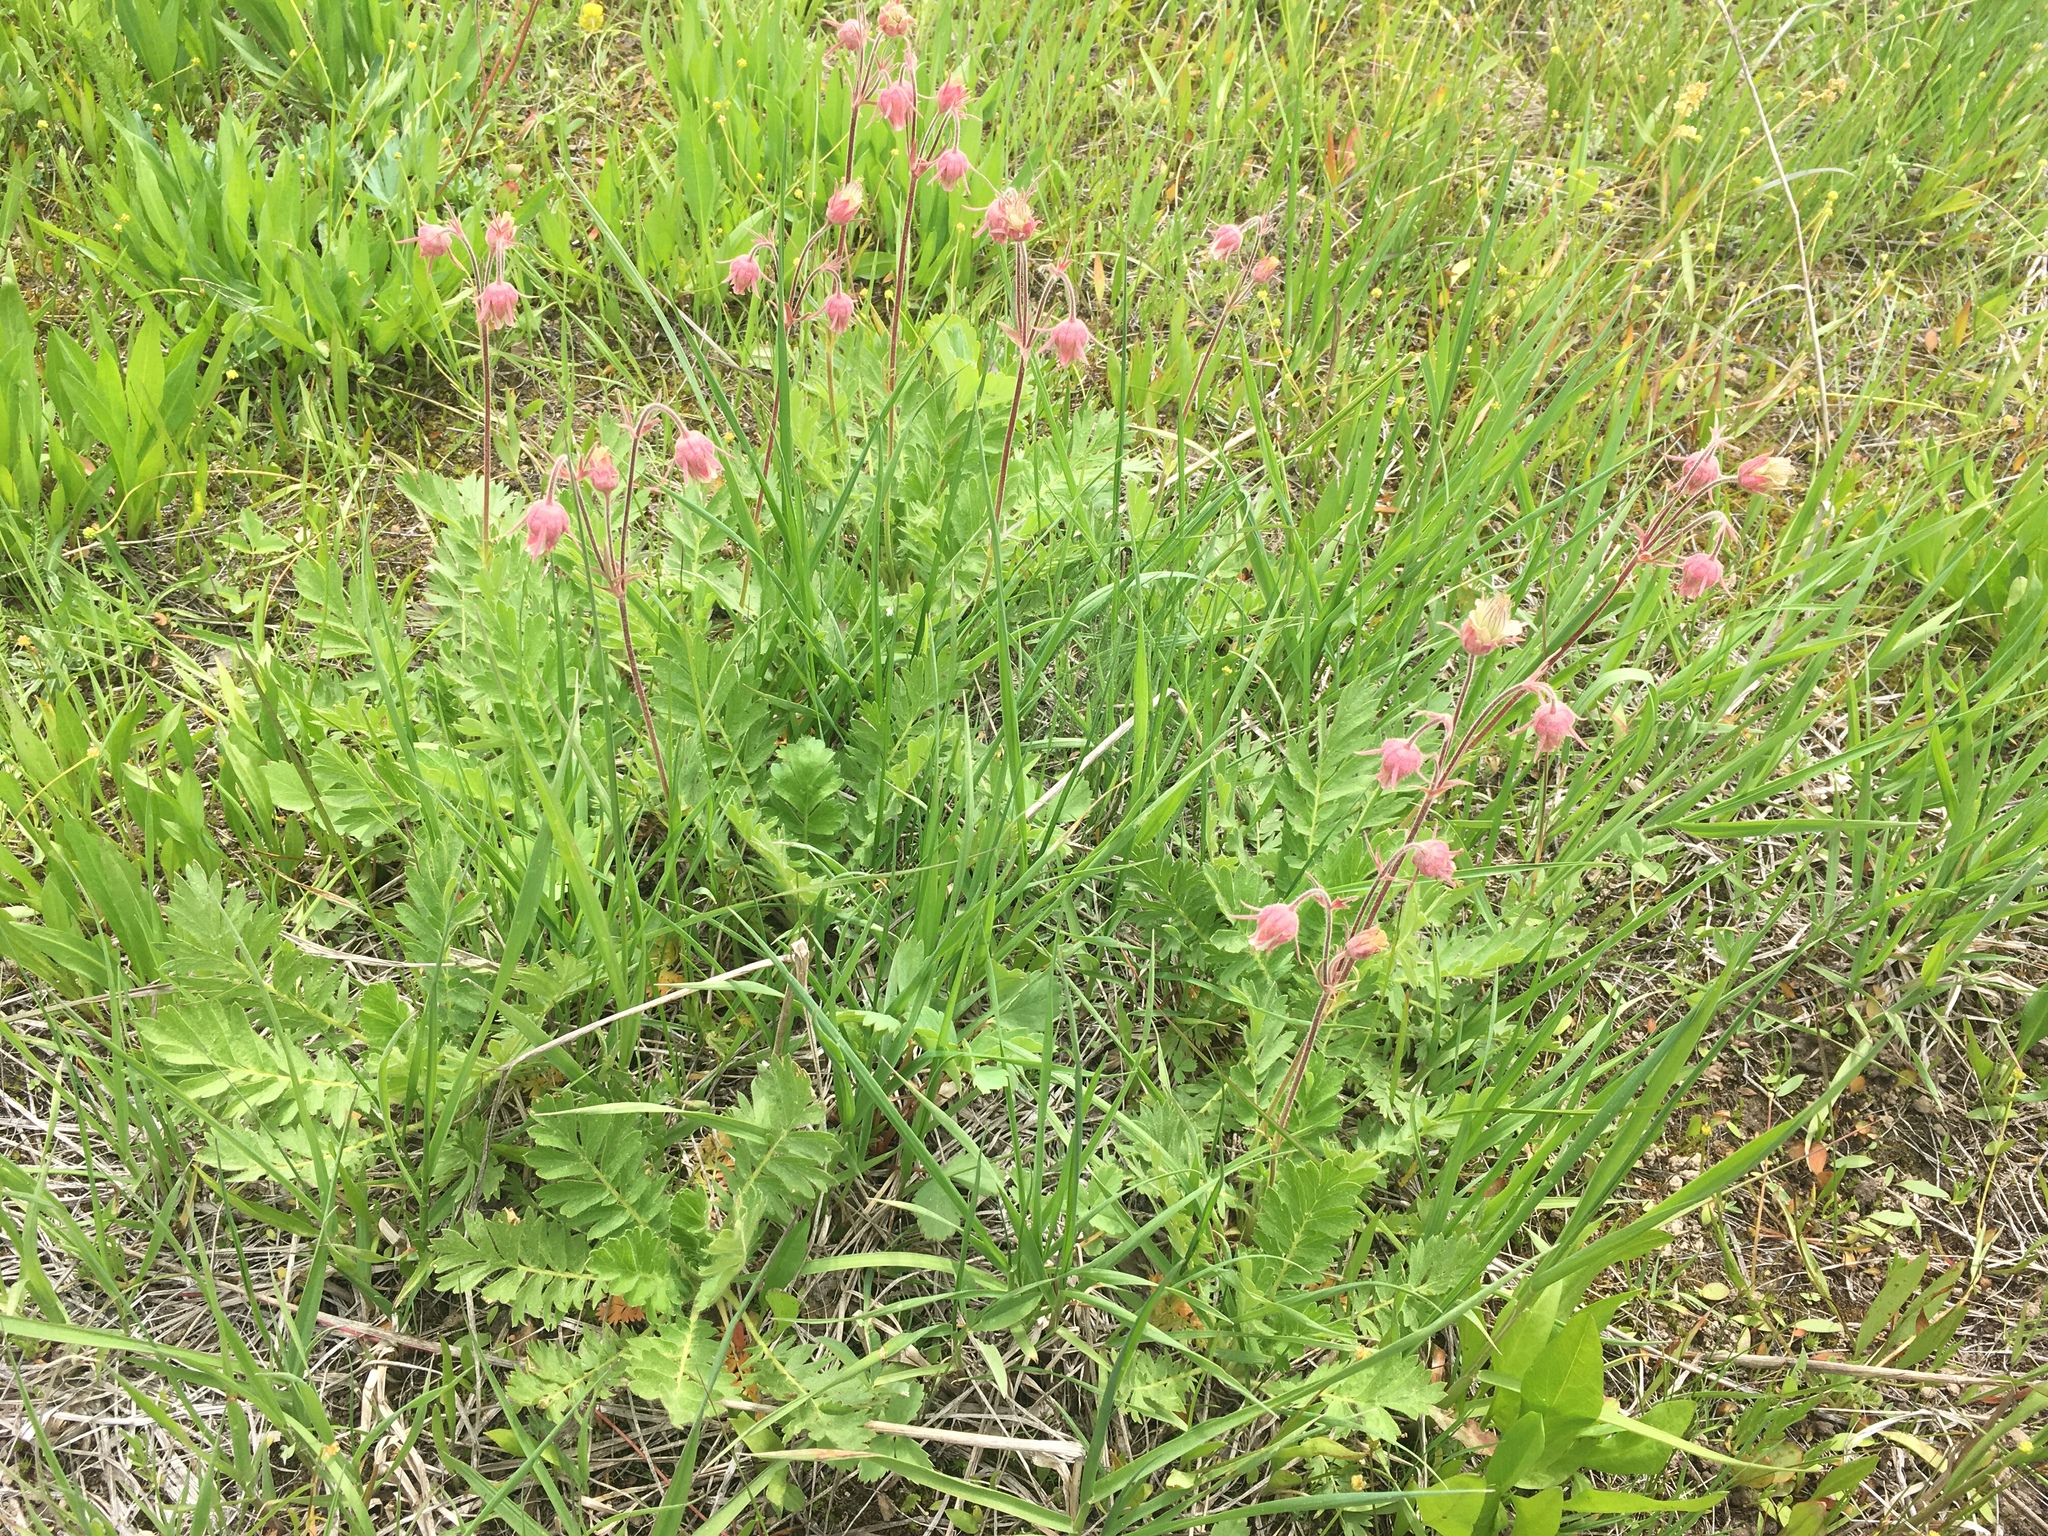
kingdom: Plantae
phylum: Tracheophyta
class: Magnoliopsida
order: Rosales
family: Rosaceae
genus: Geum
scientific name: Geum triflorum
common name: Old man's whiskers
